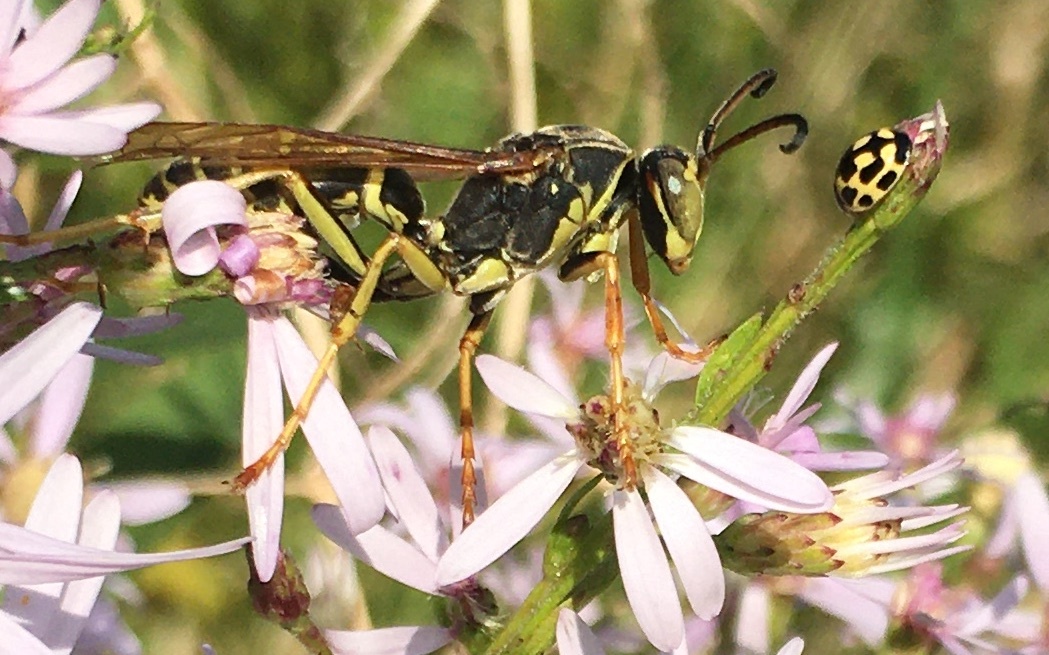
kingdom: Animalia
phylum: Arthropoda
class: Insecta
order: Hymenoptera
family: Eumenidae
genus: Polistes
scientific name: Polistes fuscatus
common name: Dark paper wasp
